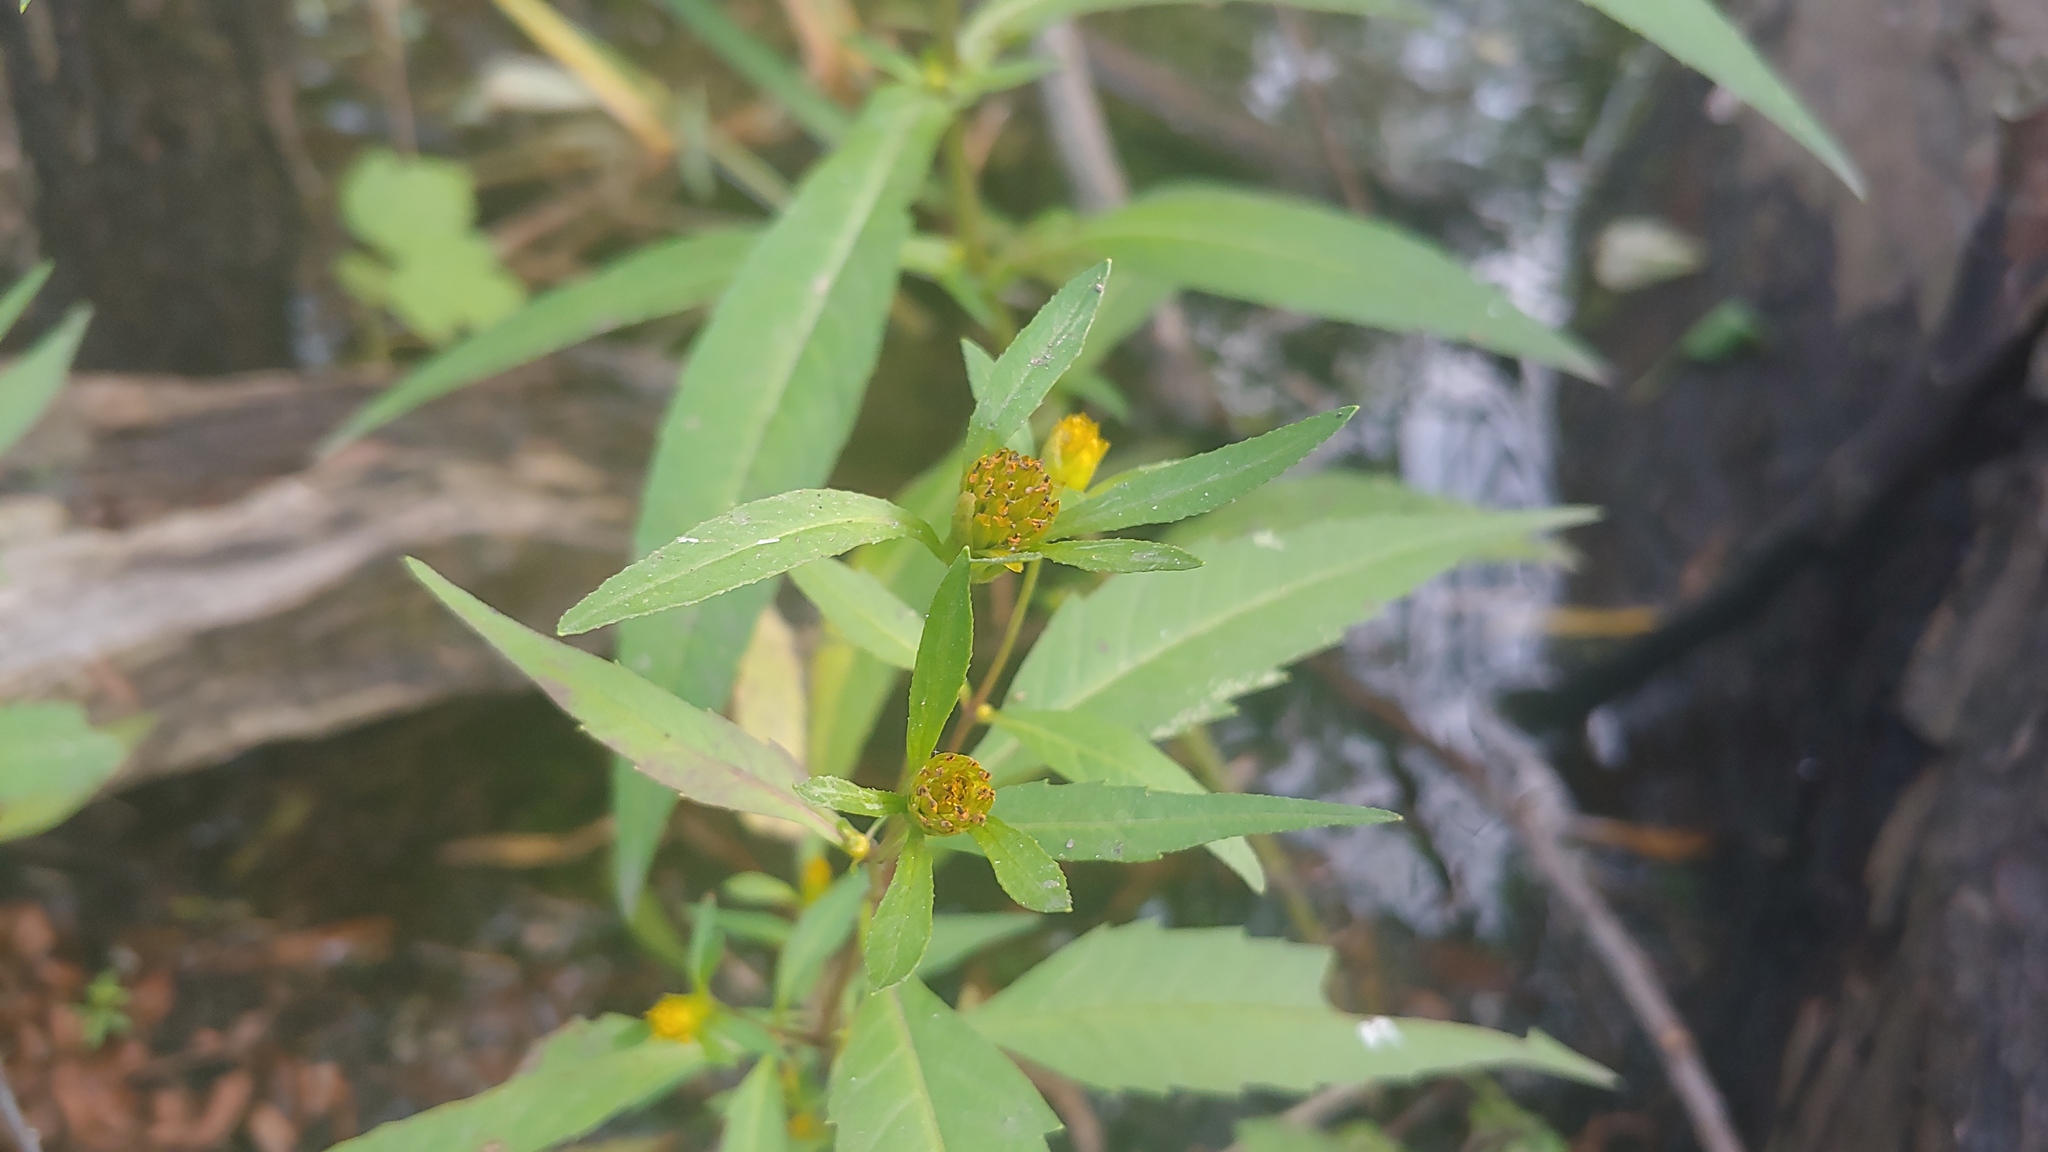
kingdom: Plantae
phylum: Tracheophyta
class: Magnoliopsida
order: Asterales
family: Asteraceae
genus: Bidens
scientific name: Bidens connata
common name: London bur-marigold
